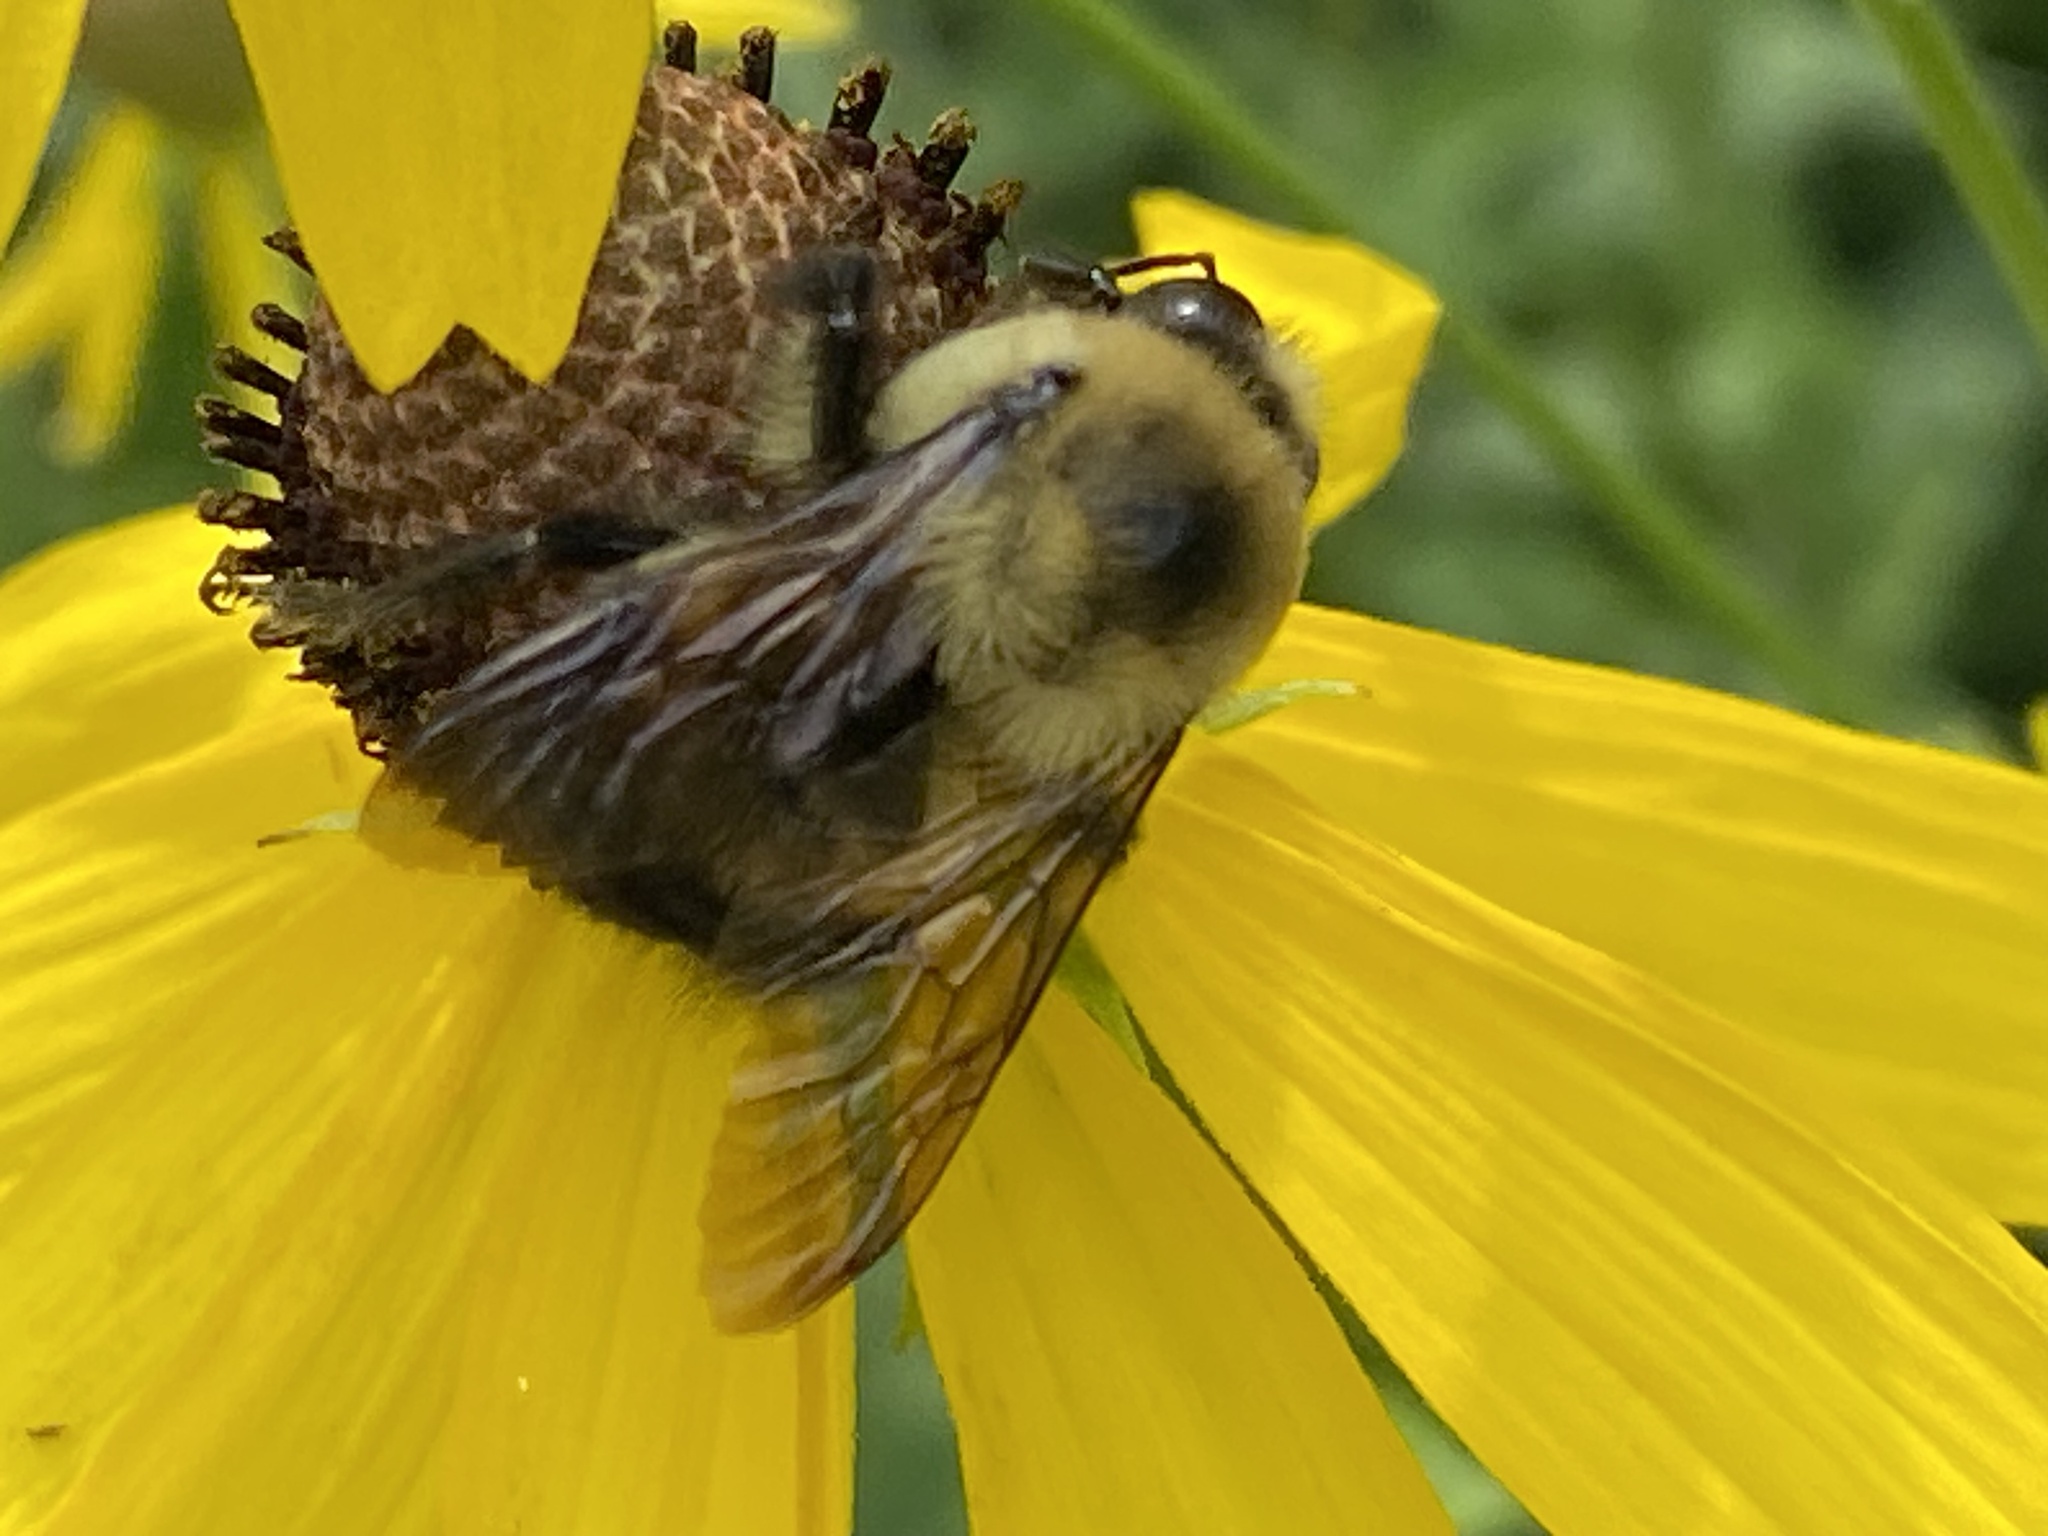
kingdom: Animalia
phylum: Arthropoda
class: Insecta
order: Hymenoptera
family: Apidae
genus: Bombus
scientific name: Bombus griseocollis
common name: Brown-belted bumble bee
